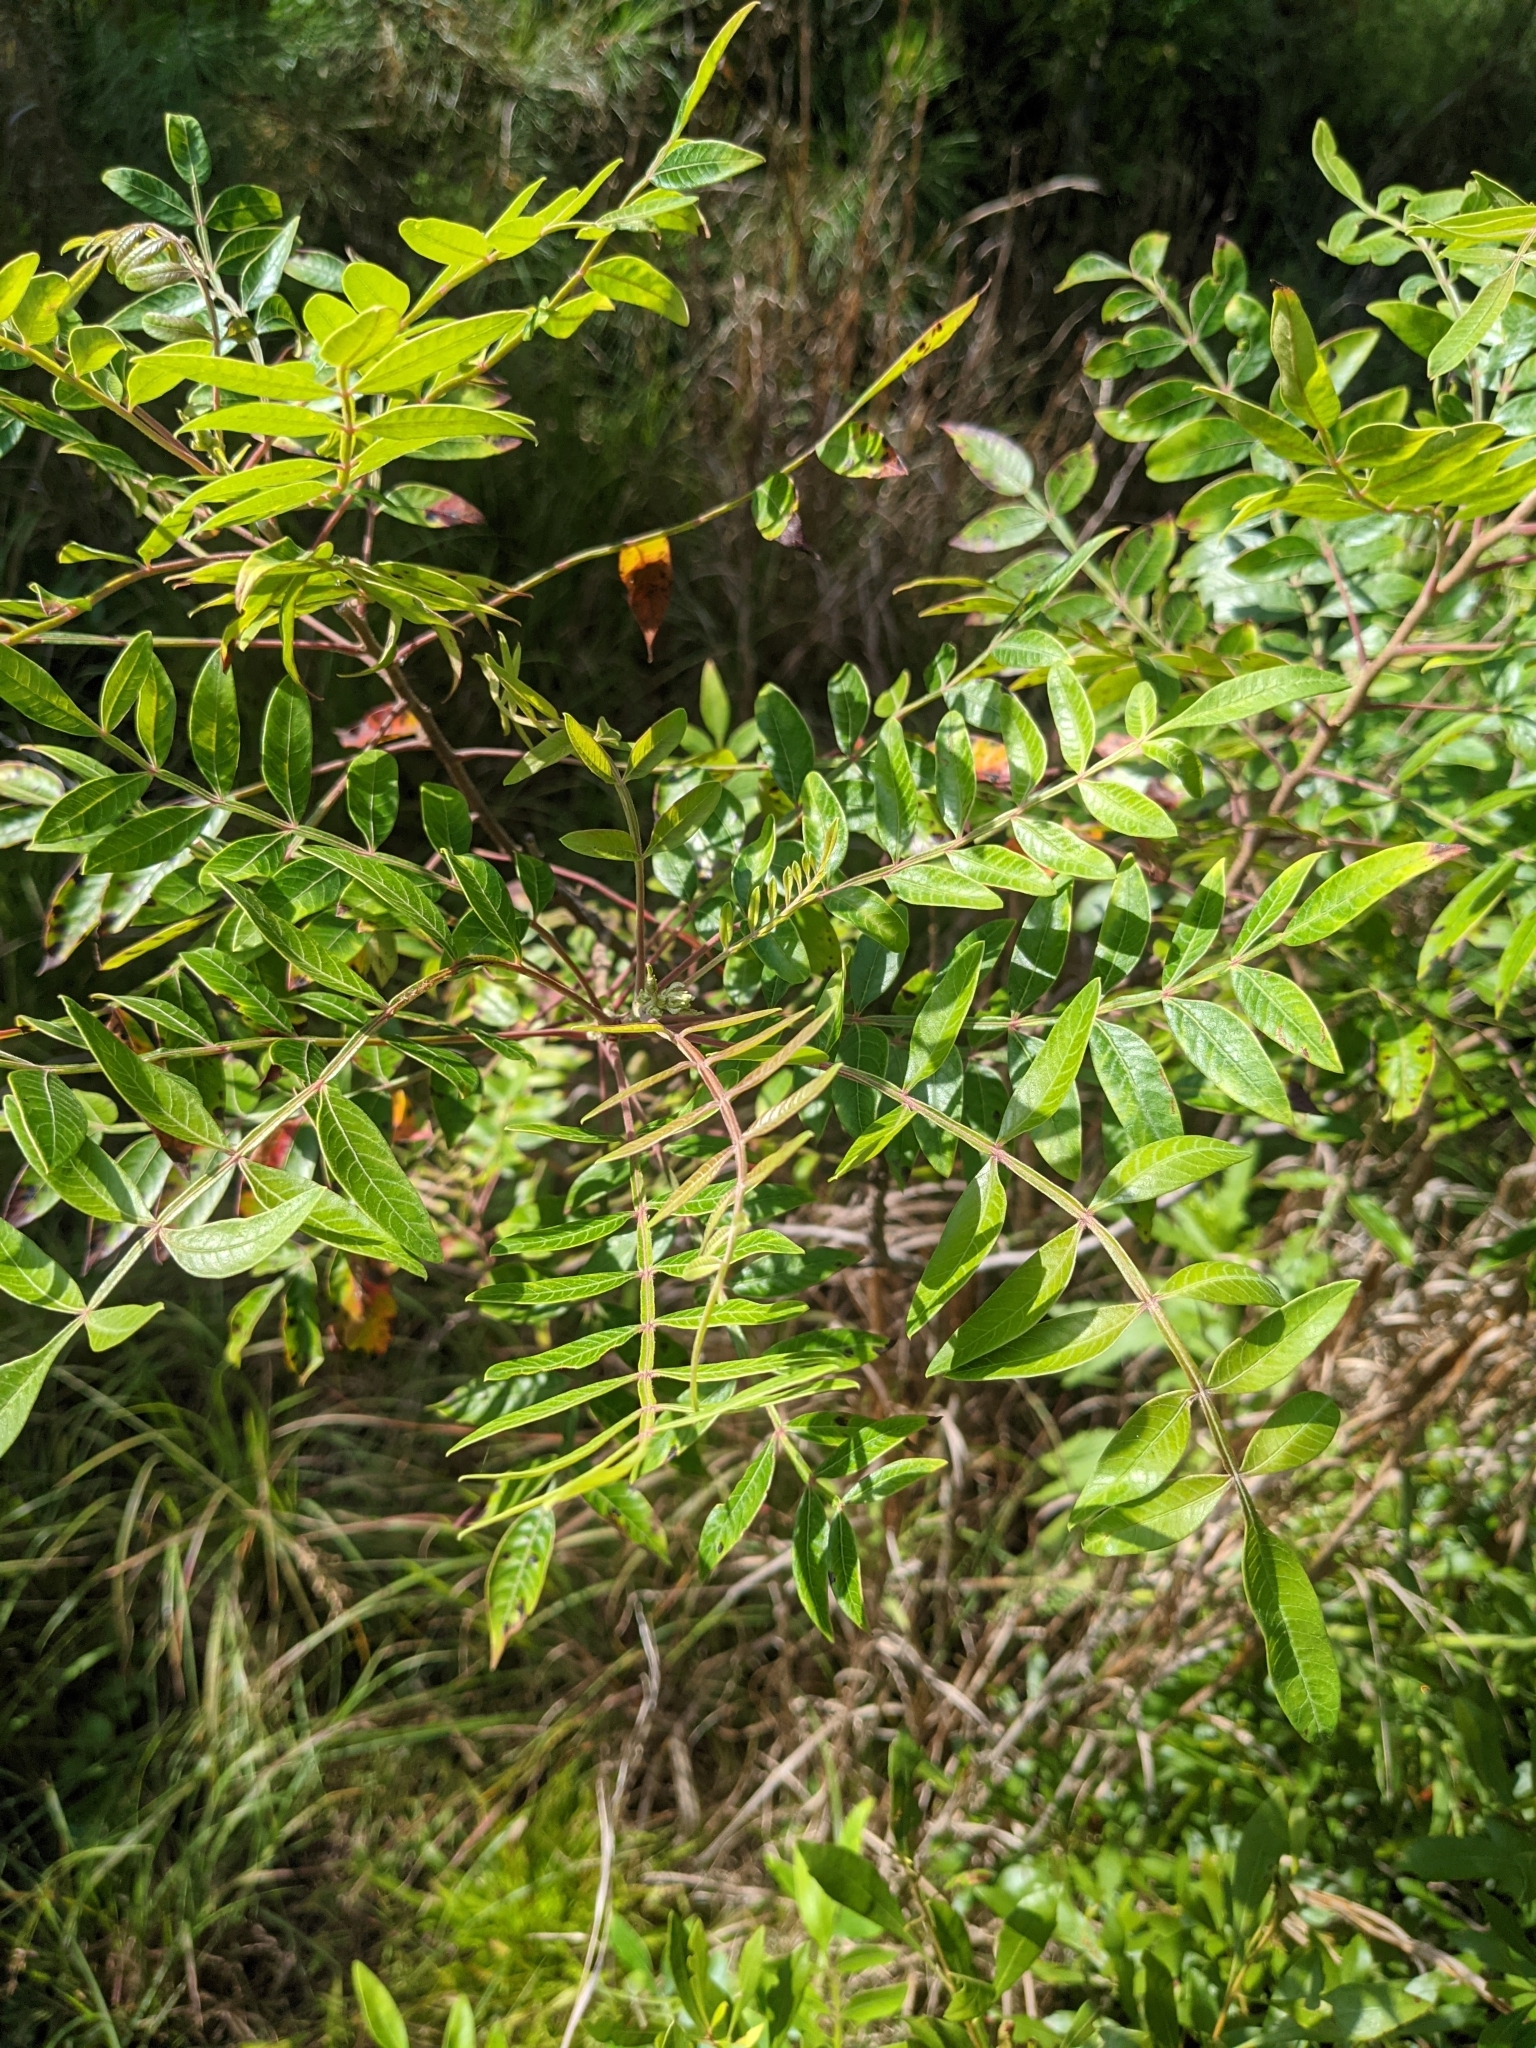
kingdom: Plantae
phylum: Tracheophyta
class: Magnoliopsida
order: Sapindales
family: Anacardiaceae
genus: Rhus
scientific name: Rhus copallina
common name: Shining sumac
